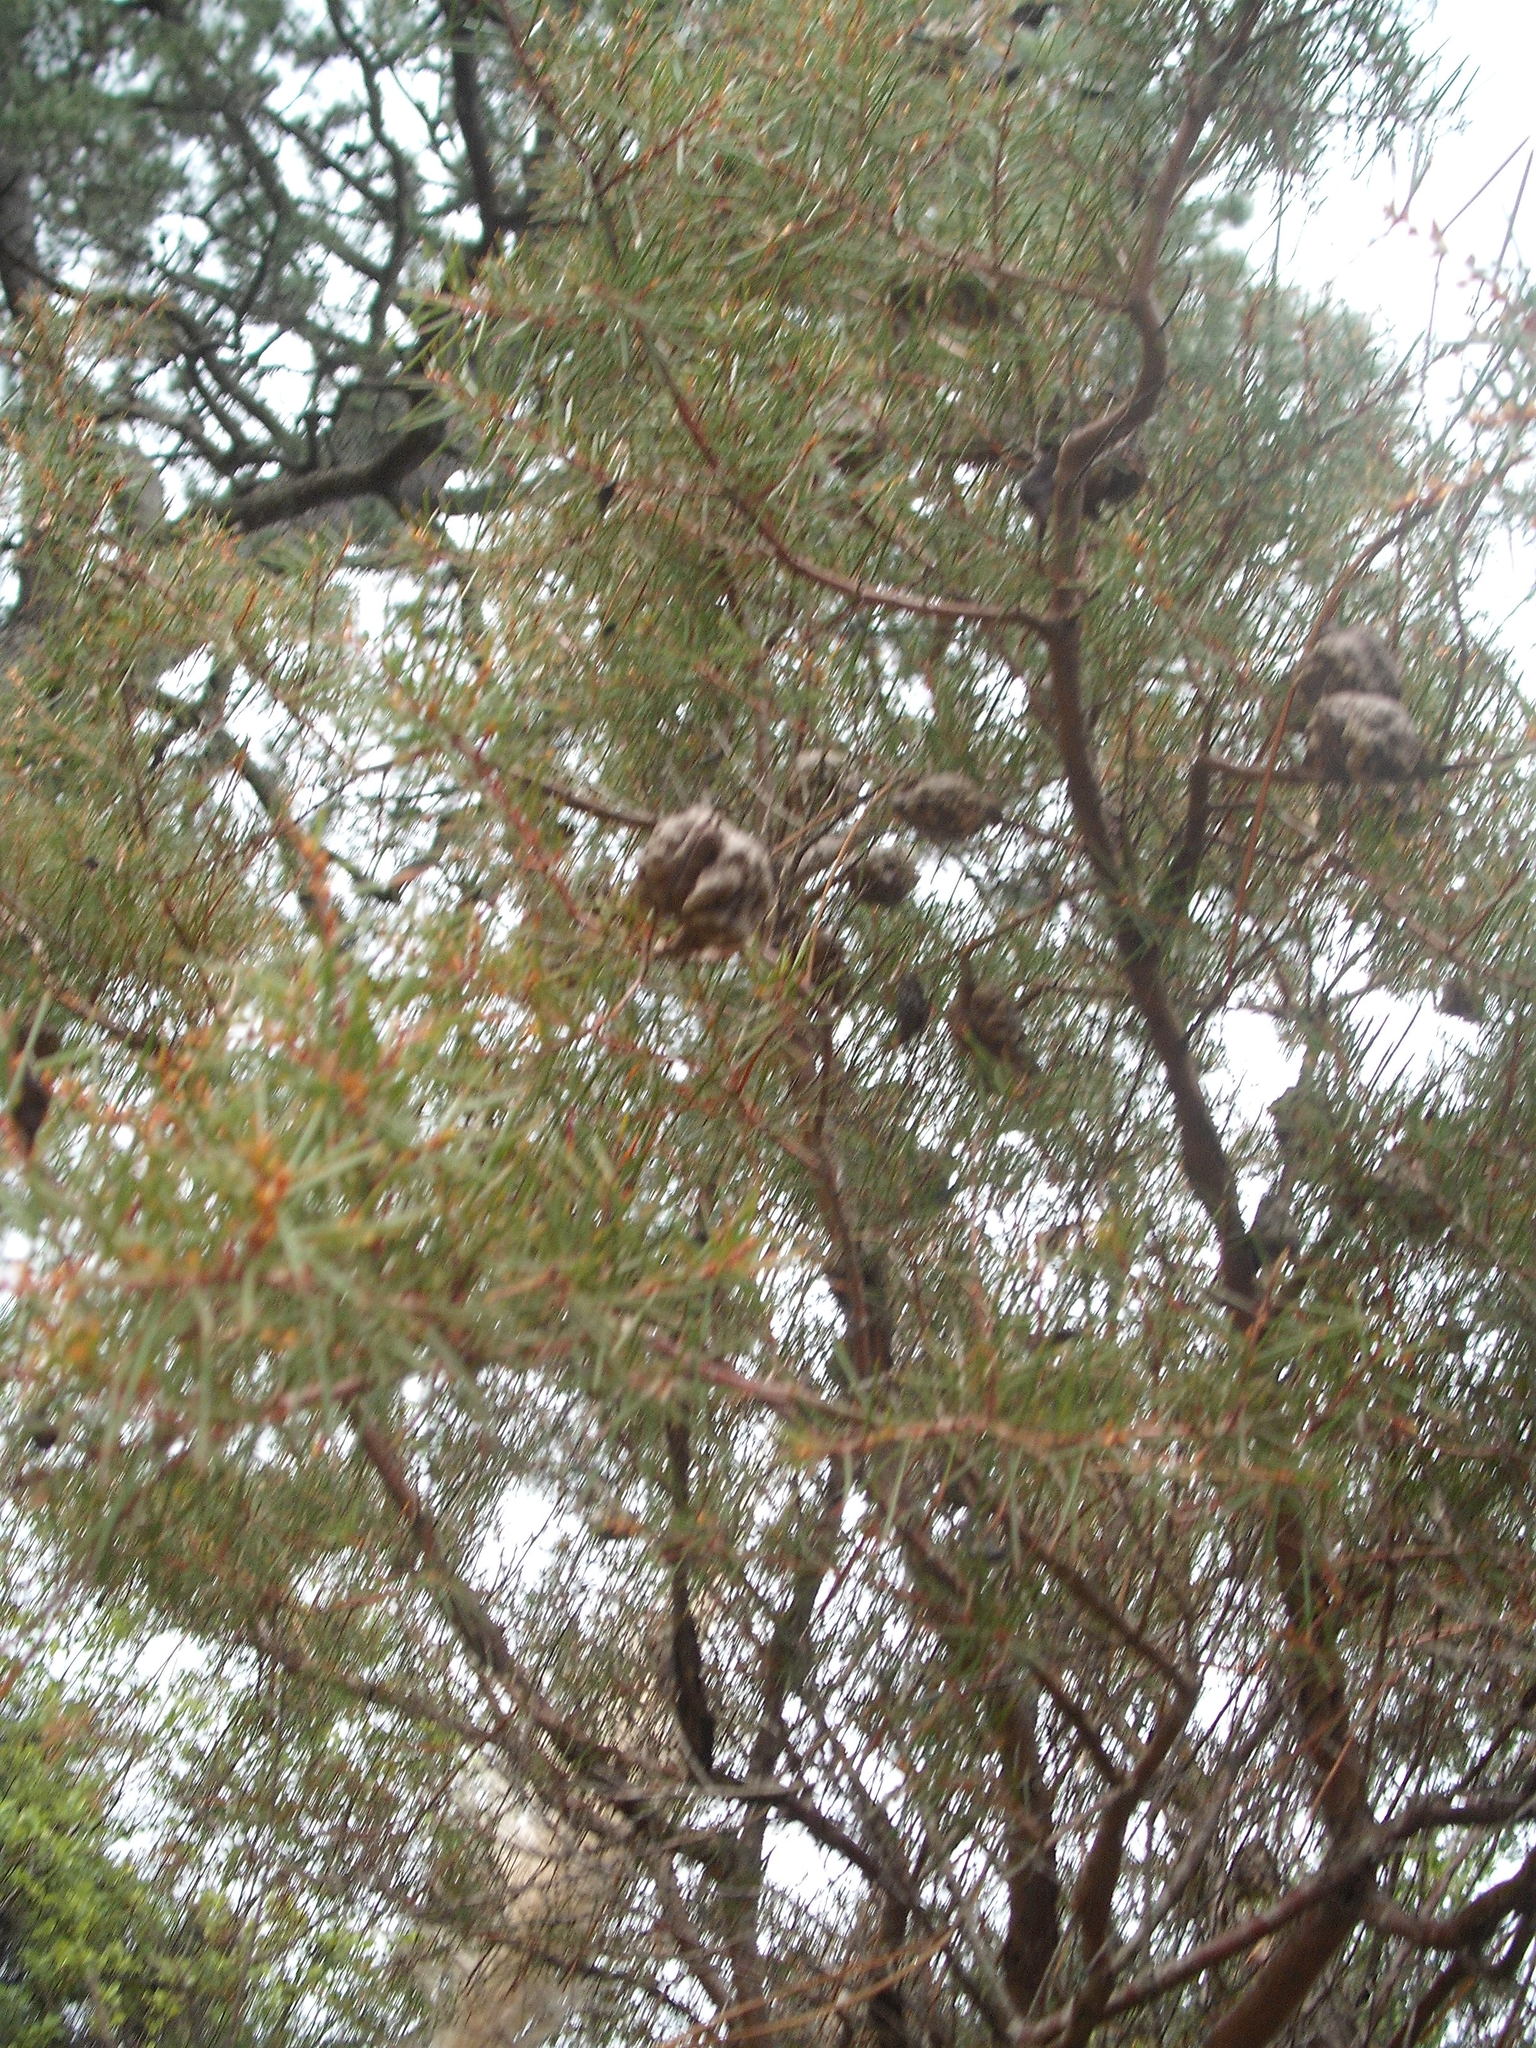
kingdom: Plantae
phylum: Tracheophyta
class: Magnoliopsida
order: Proteales
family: Proteaceae
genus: Hakea
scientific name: Hakea sericea
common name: Needle bush
